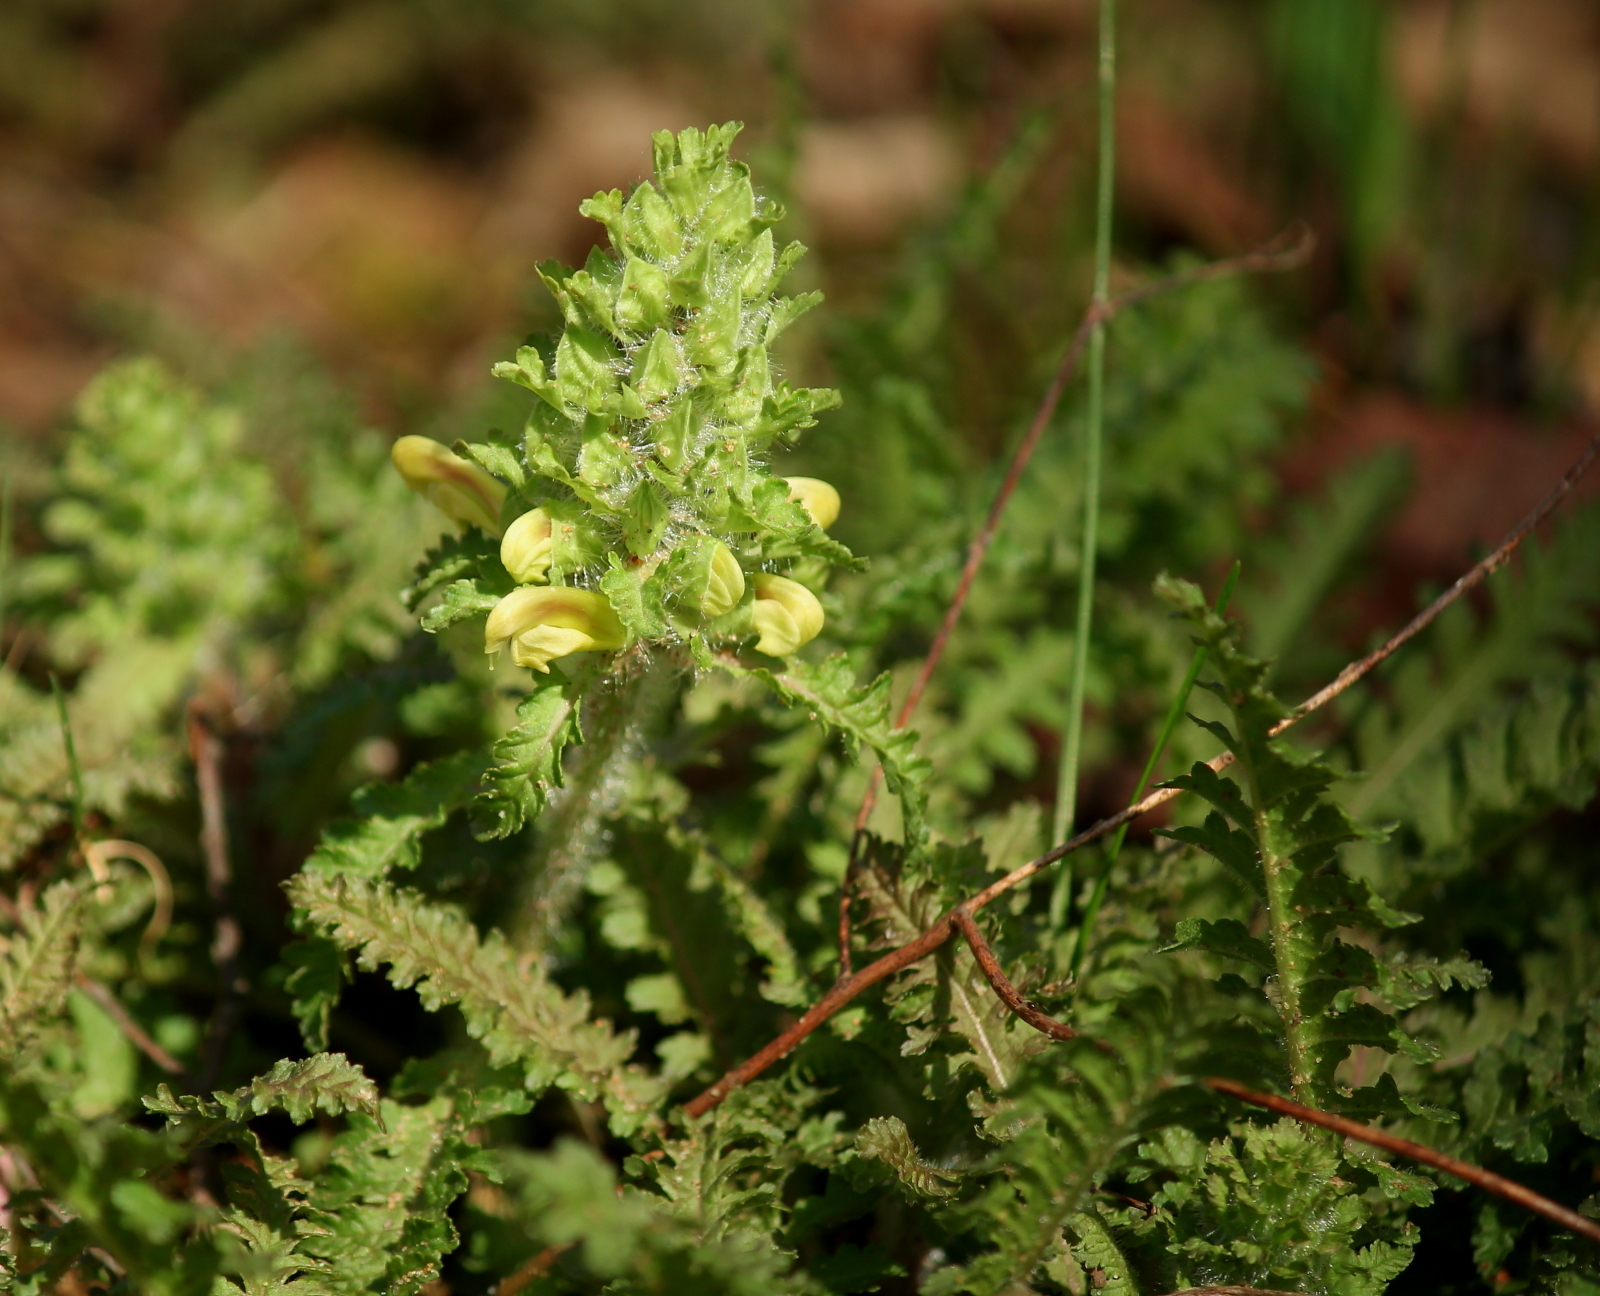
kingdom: Plantae
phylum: Tracheophyta
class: Magnoliopsida
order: Lamiales
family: Orobanchaceae
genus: Pedicularis
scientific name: Pedicularis canadensis
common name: Early lousewort
